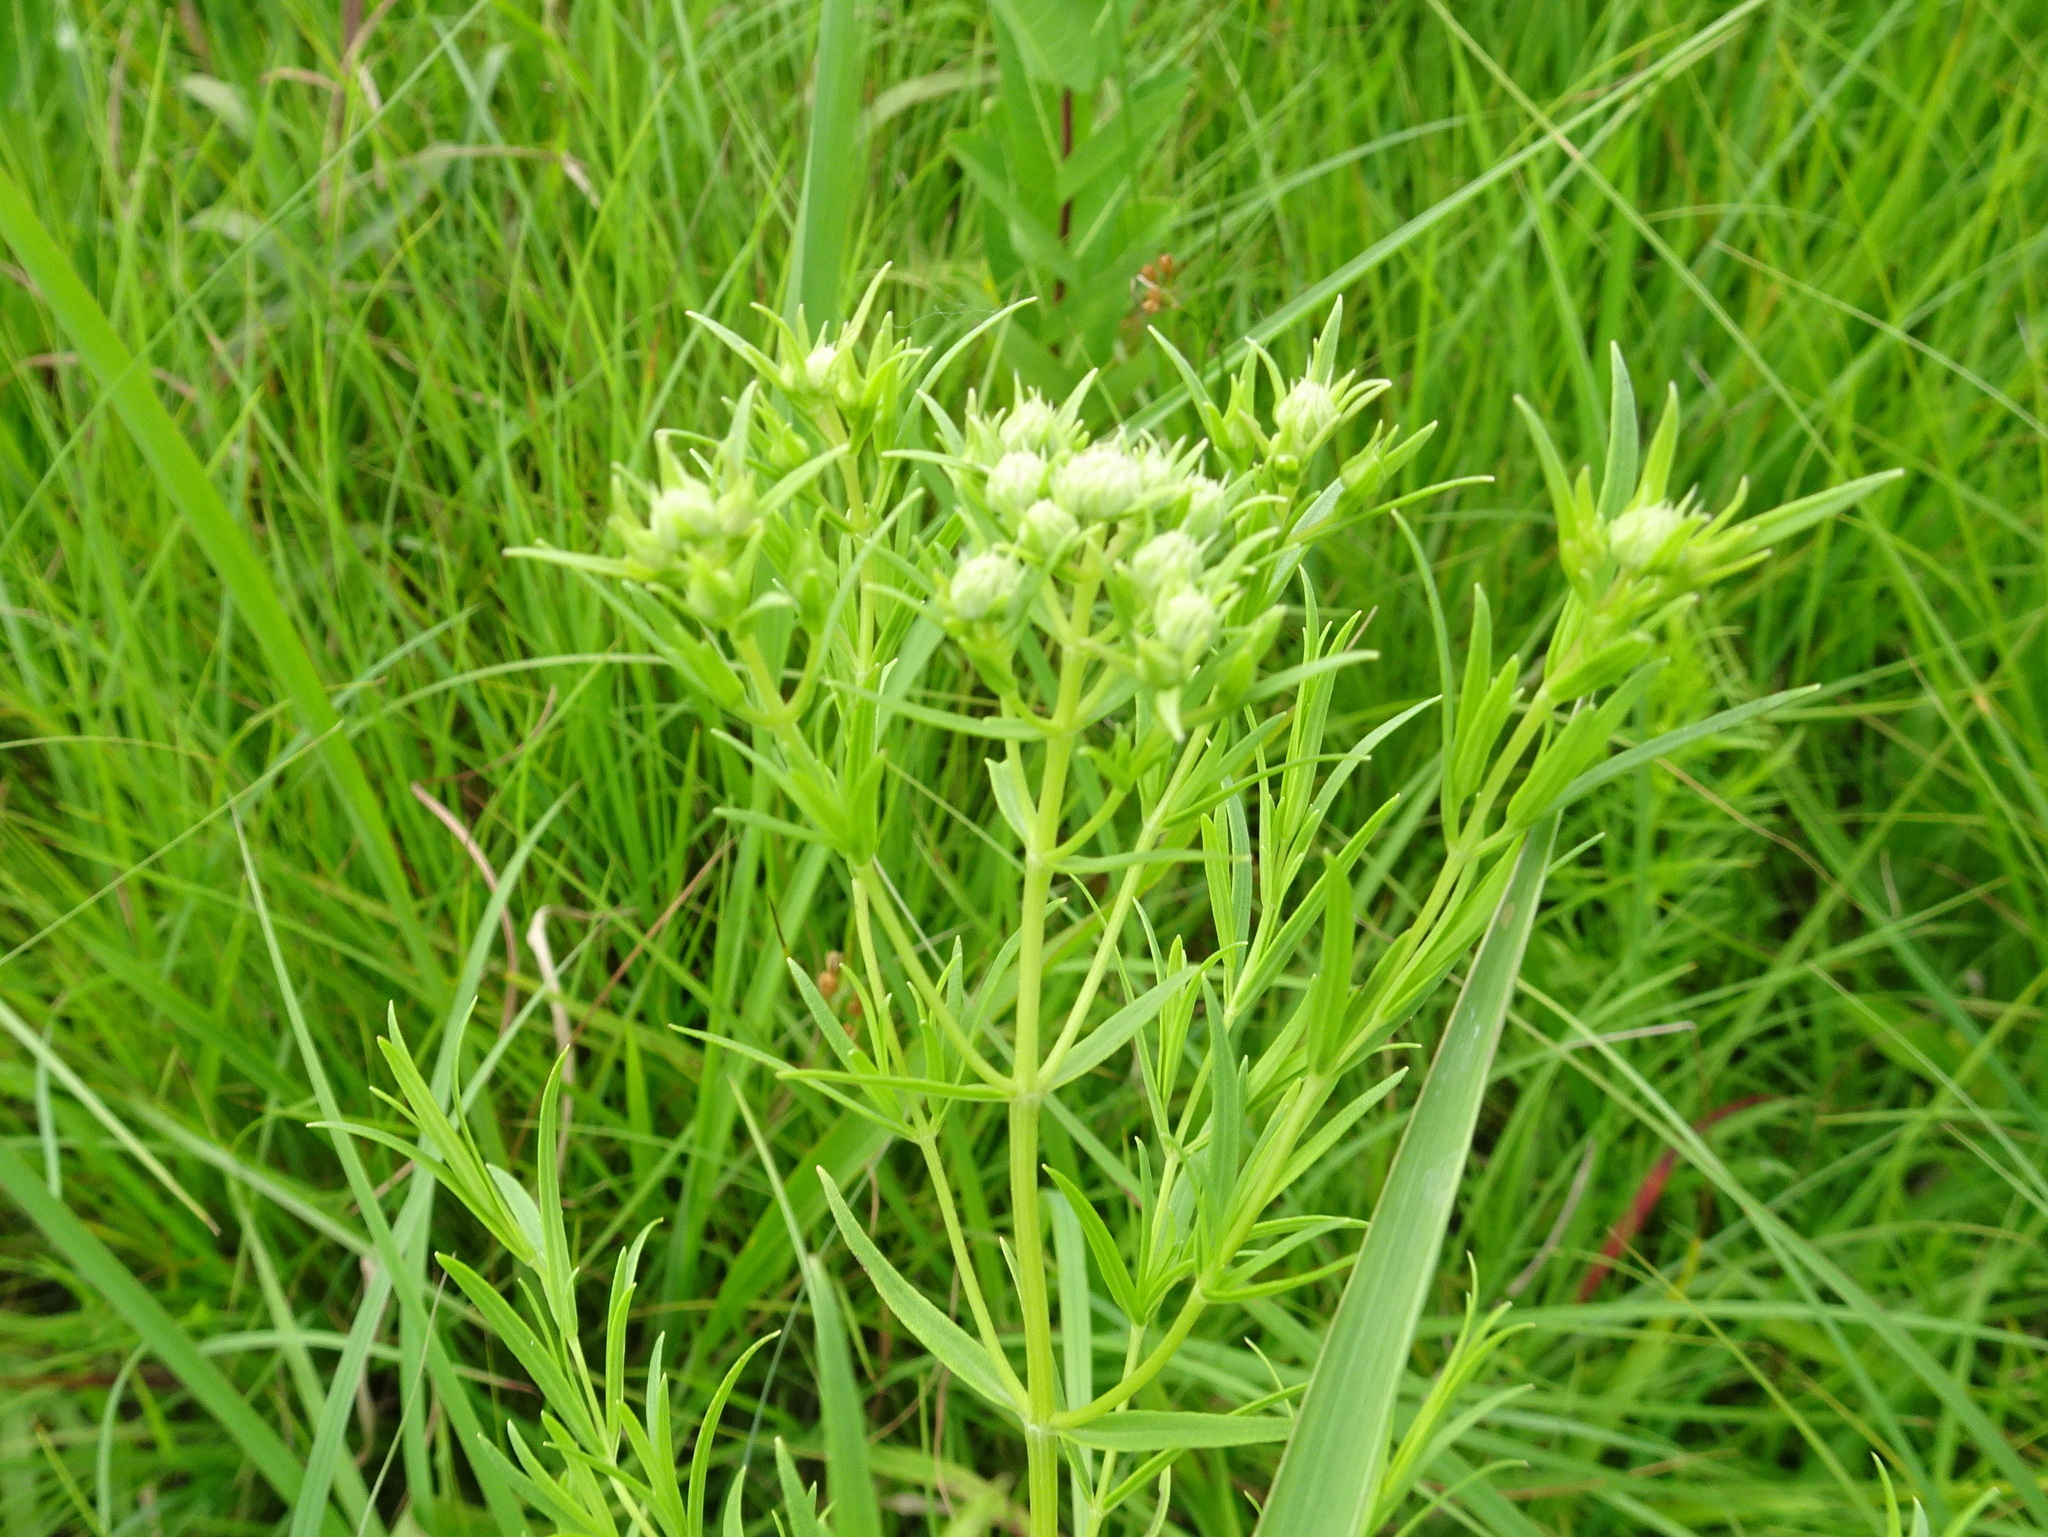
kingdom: Plantae
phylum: Tracheophyta
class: Magnoliopsida
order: Lamiales
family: Lamiaceae
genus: Pycnanthemum
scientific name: Pycnanthemum tenuifolium
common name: Narrow-leaf mountain-mint
